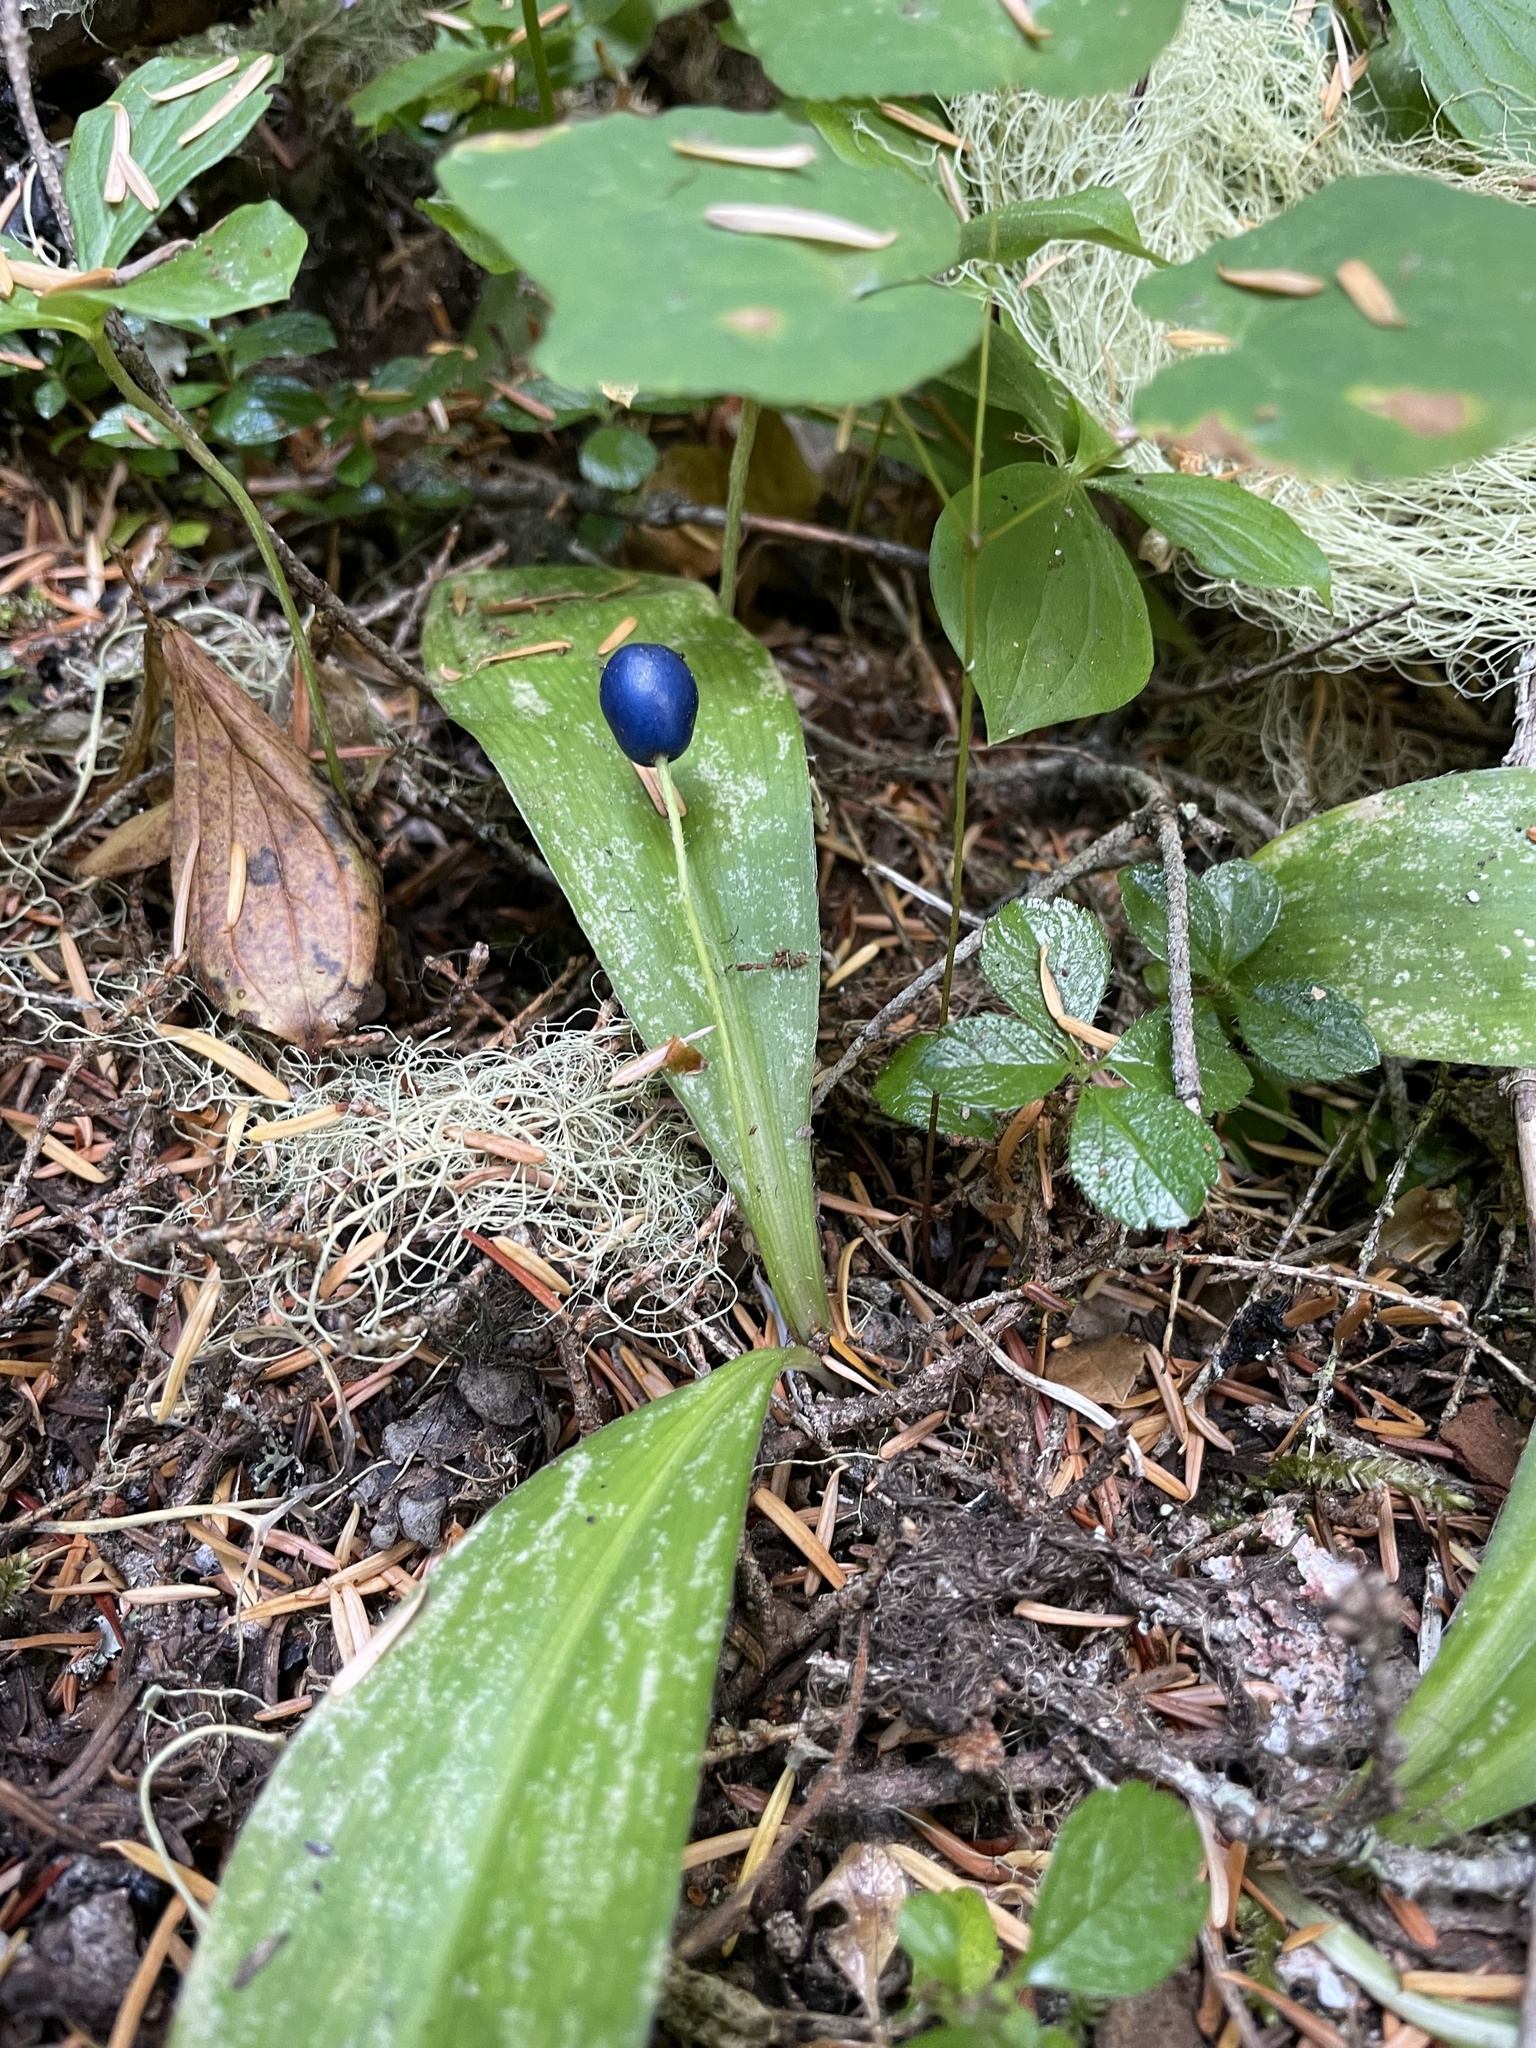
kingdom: Plantae
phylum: Tracheophyta
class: Liliopsida
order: Liliales
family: Liliaceae
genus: Clintonia
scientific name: Clintonia uniflora
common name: Queen's cup
